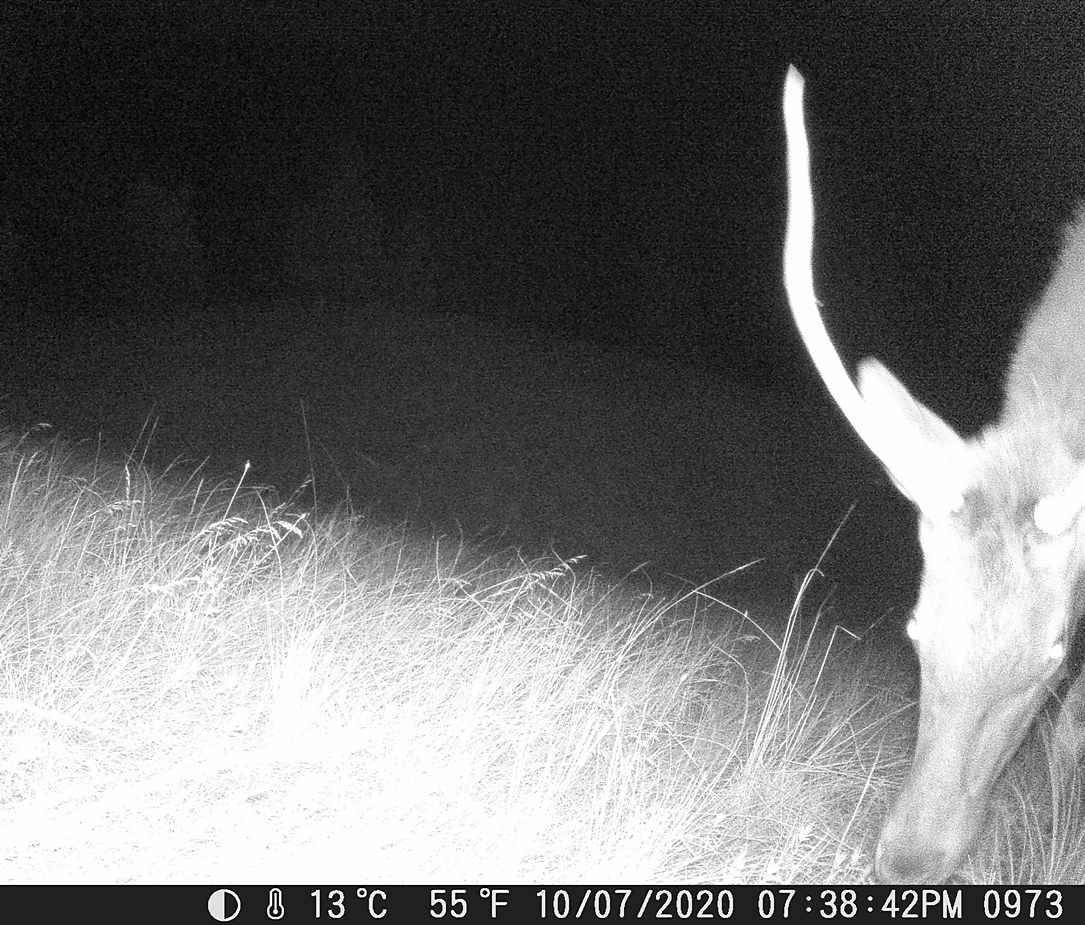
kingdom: Animalia
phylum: Chordata
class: Mammalia
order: Artiodactyla
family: Cervidae
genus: Cervus
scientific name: Cervus elaphus
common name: Red deer
